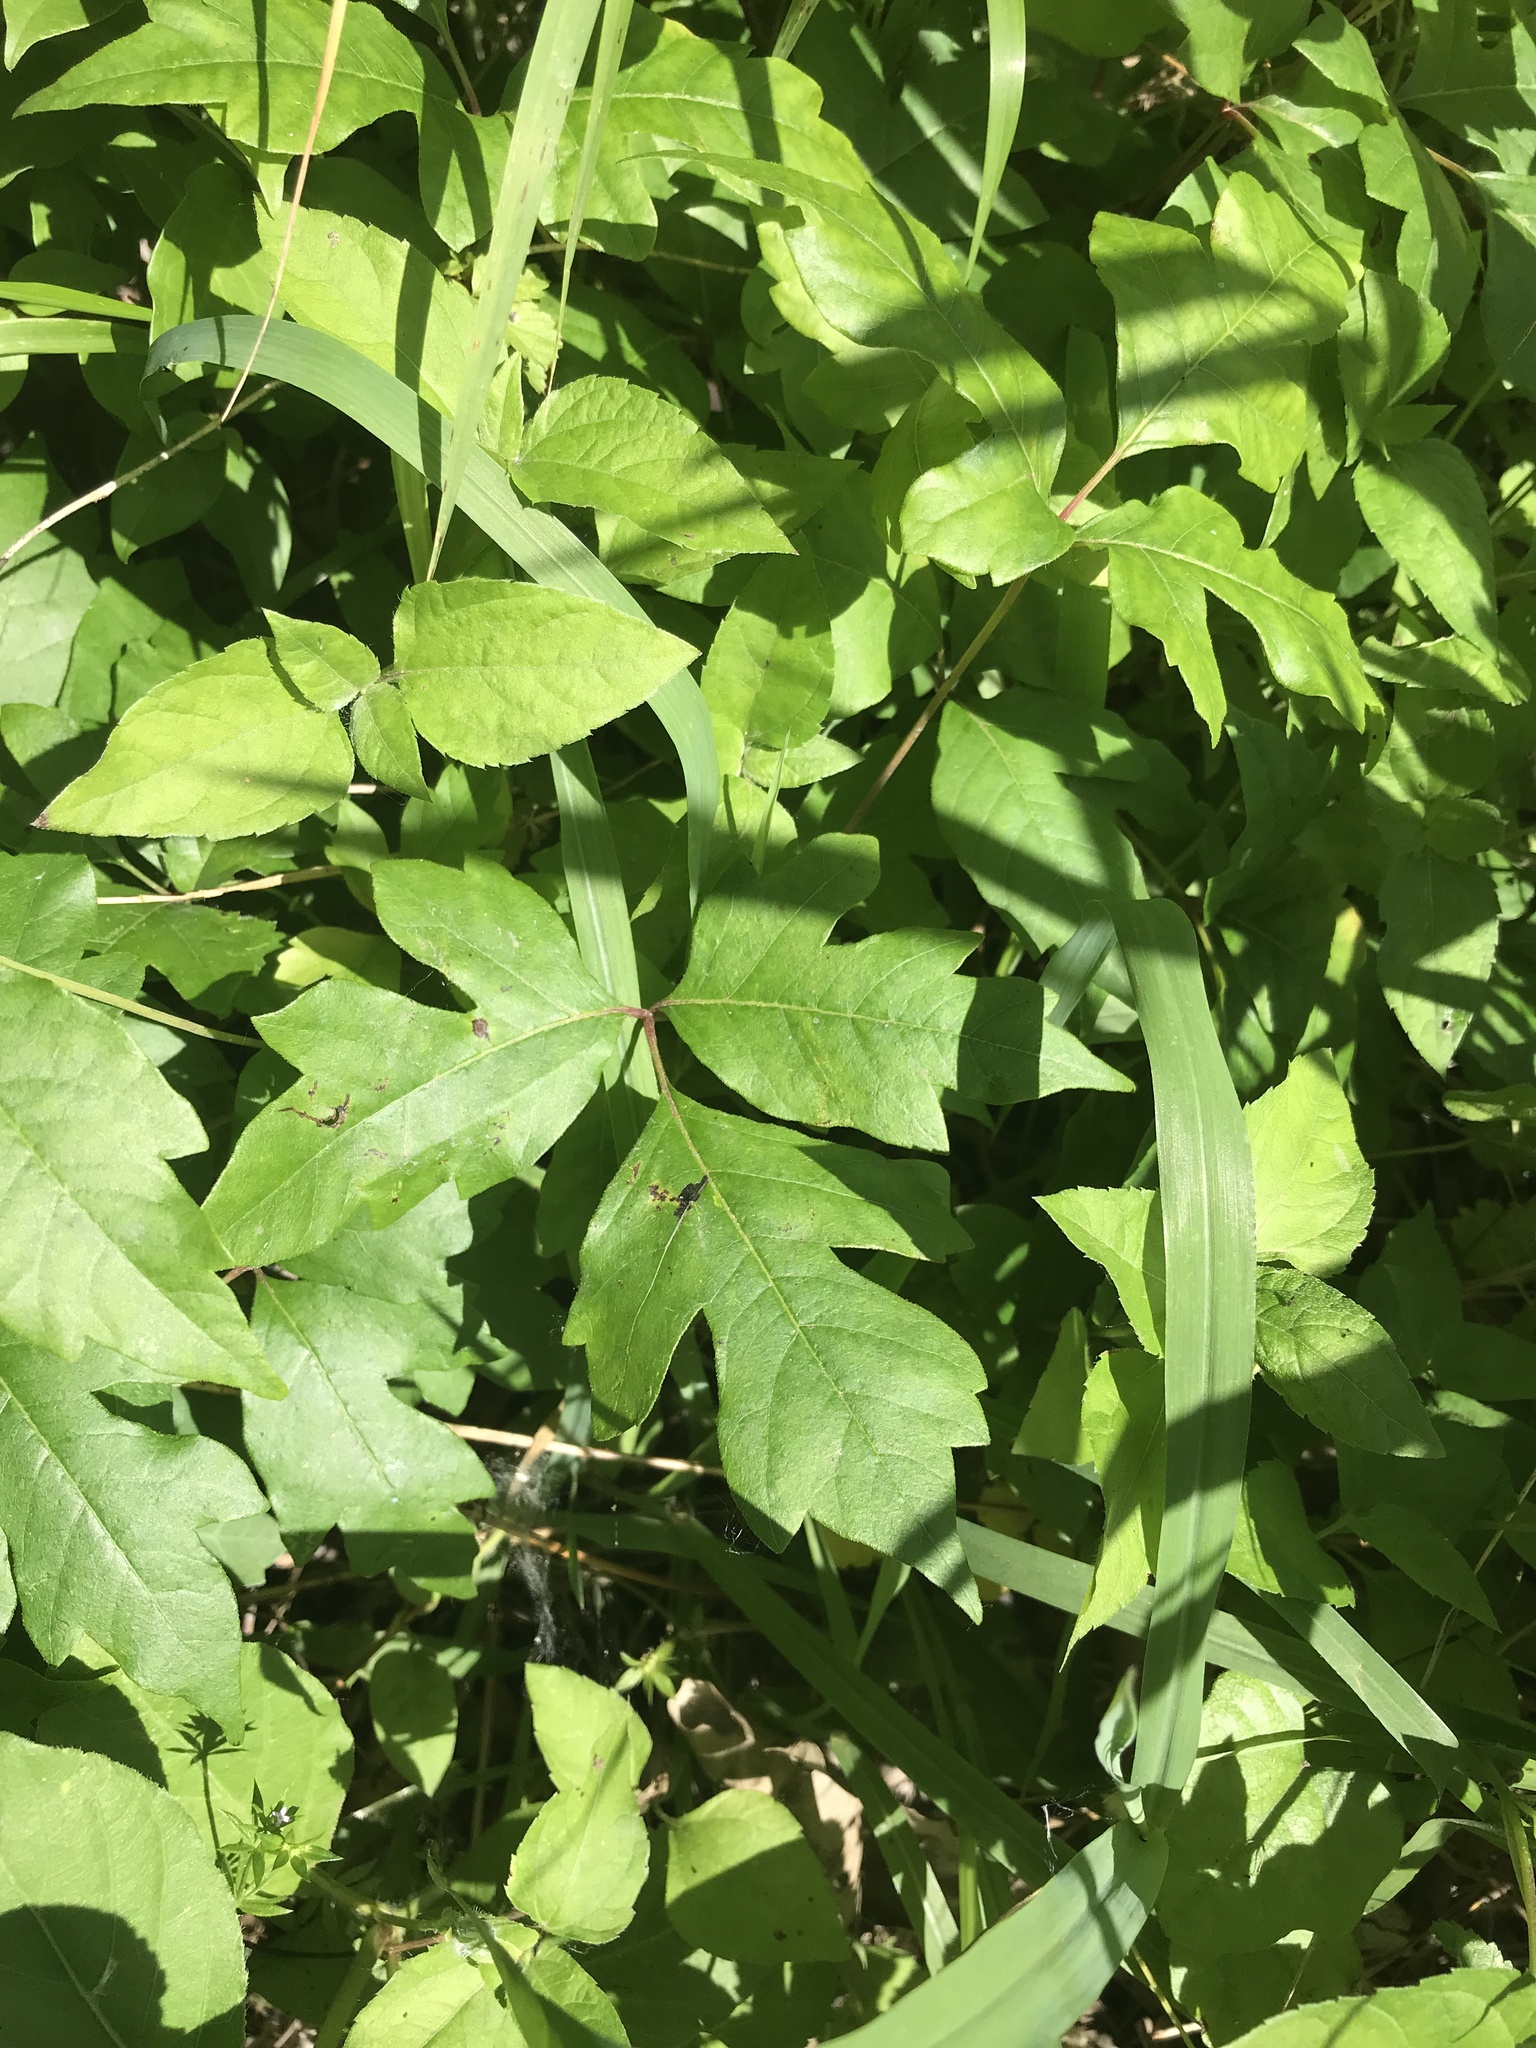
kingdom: Plantae
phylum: Tracheophyta
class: Magnoliopsida
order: Sapindales
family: Anacardiaceae
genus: Toxicodendron
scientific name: Toxicodendron radicans
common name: Poison ivy
